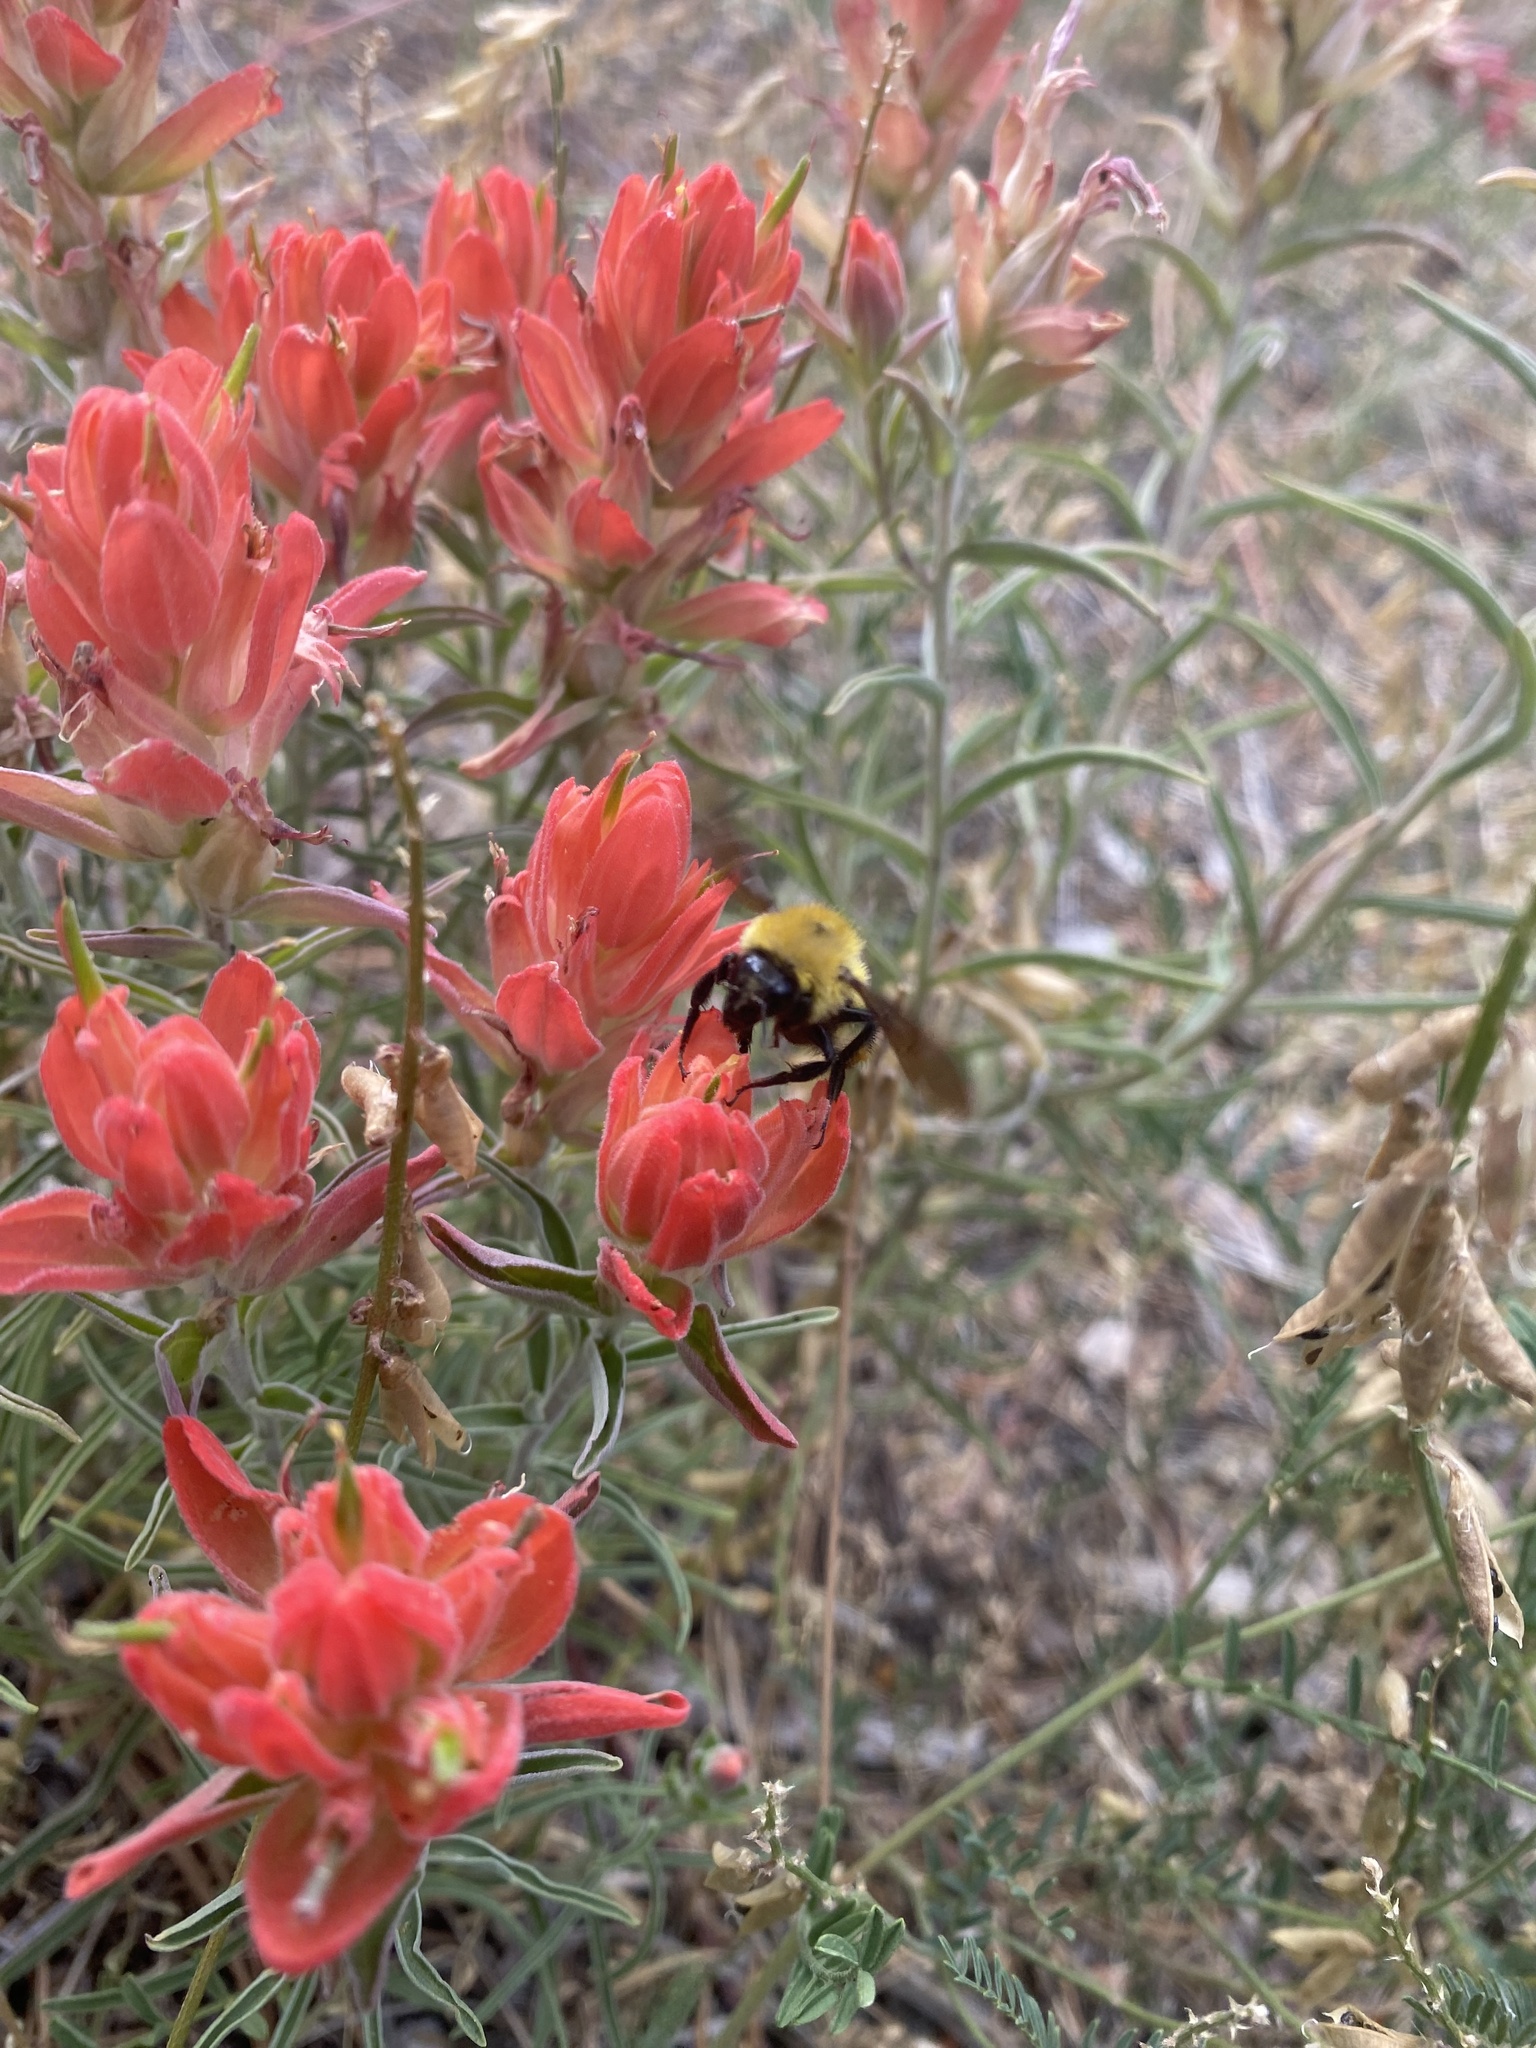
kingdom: Animalia
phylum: Arthropoda
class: Insecta
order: Hymenoptera
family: Apidae
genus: Bombus
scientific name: Bombus fervidus
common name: Yellow bumble bee
